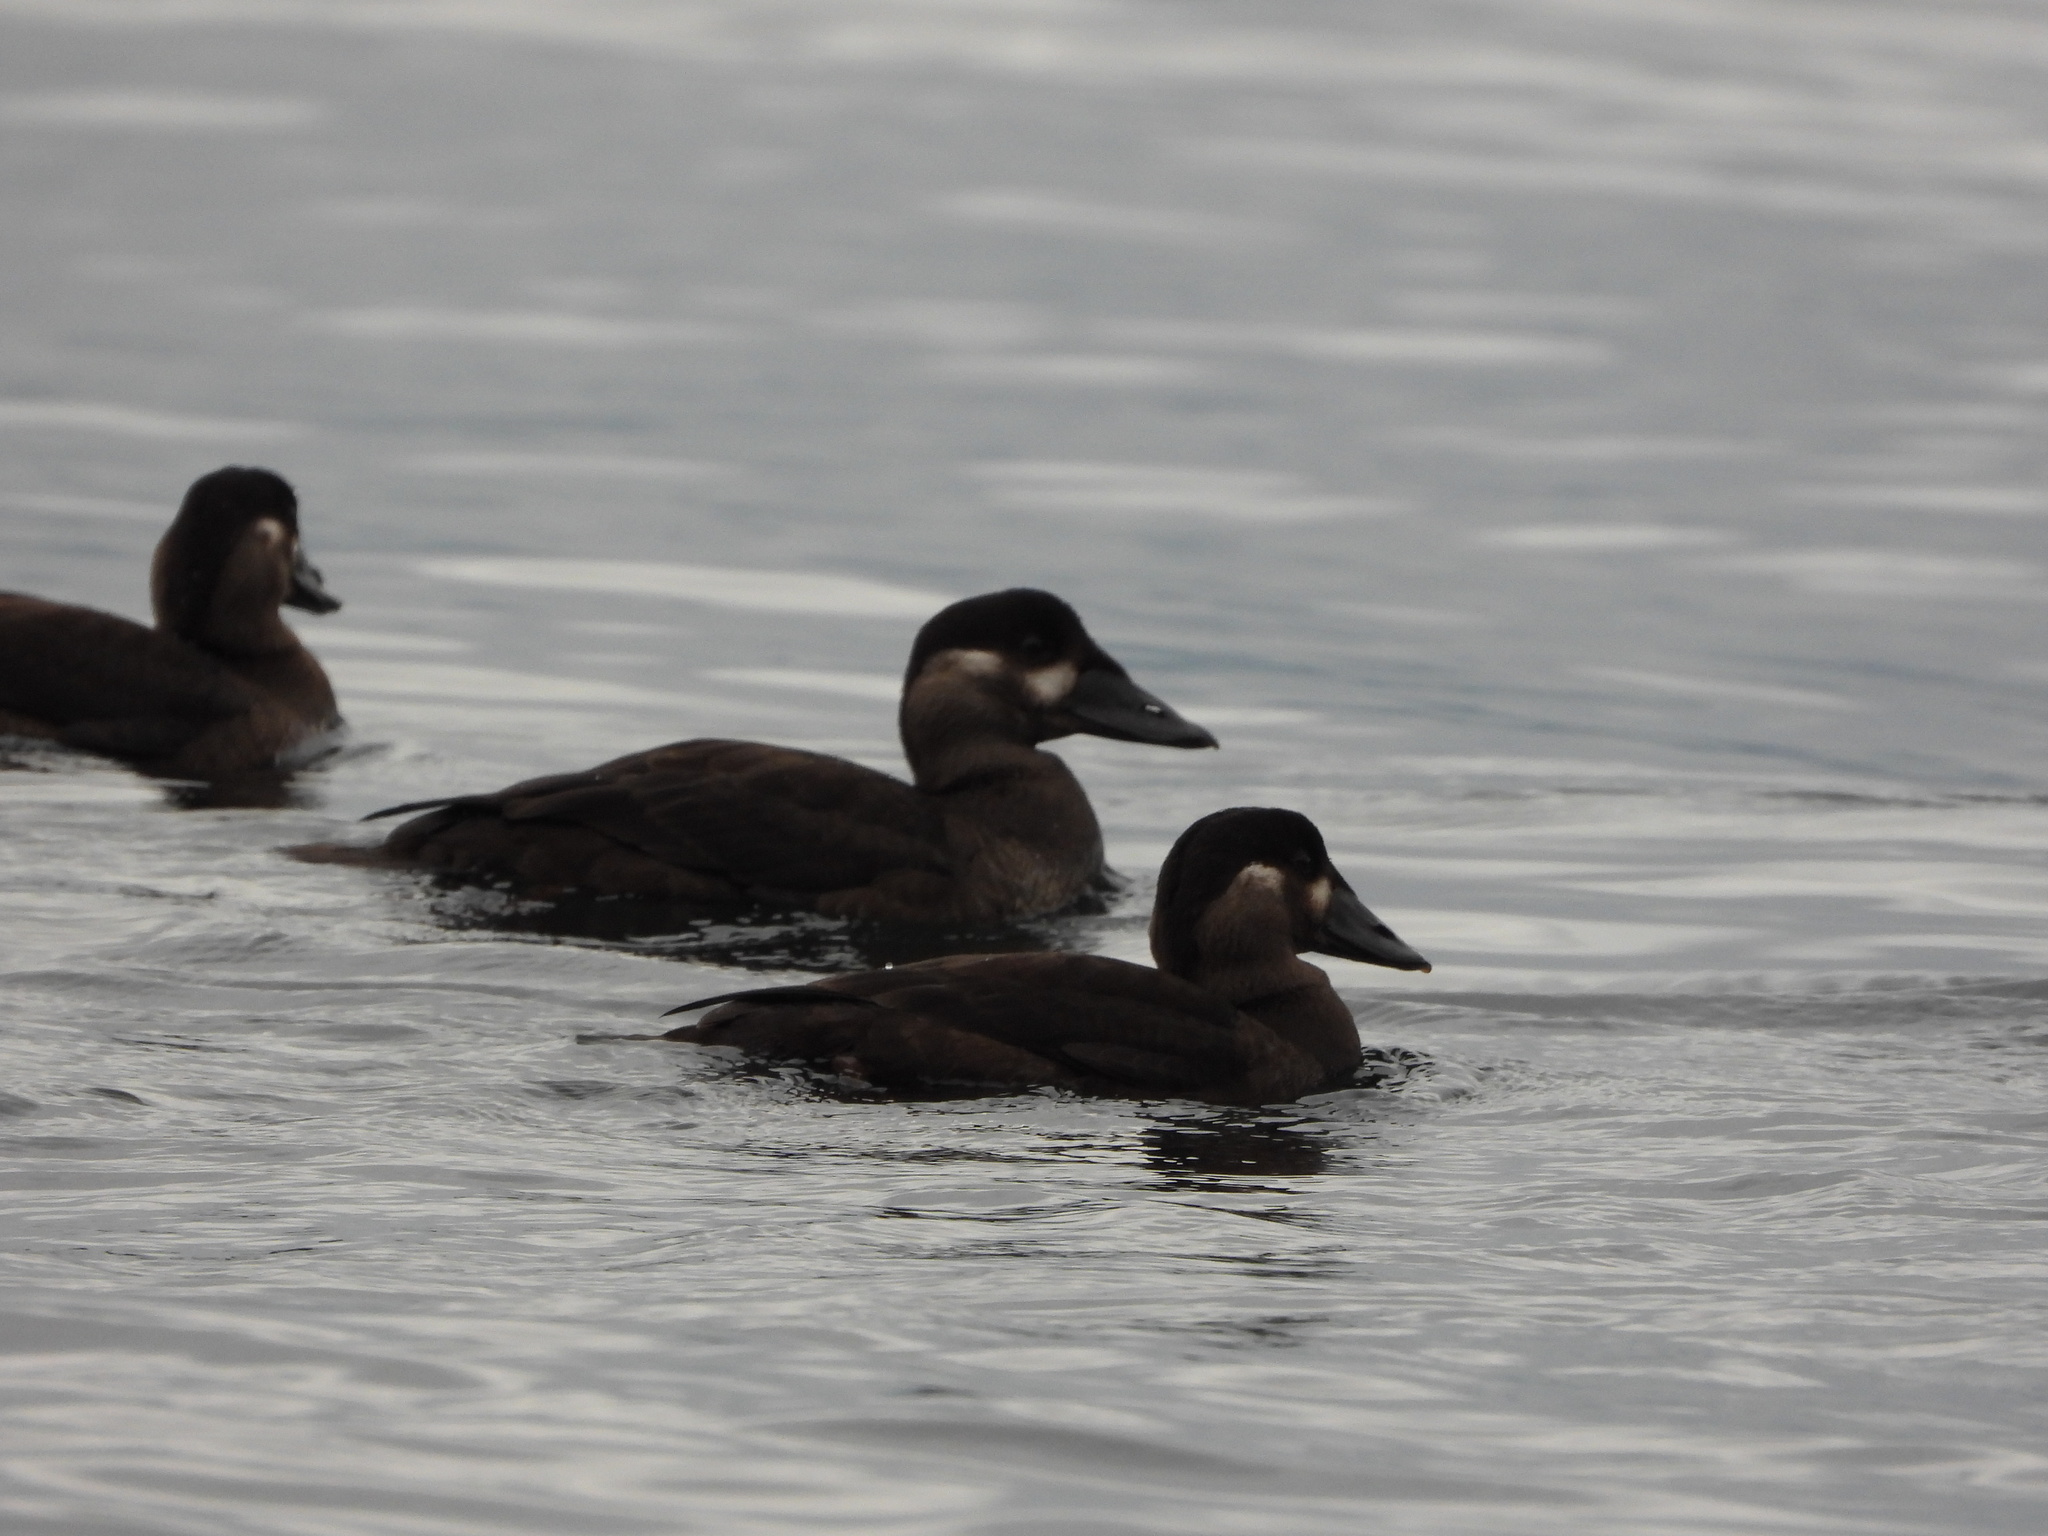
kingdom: Animalia
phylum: Chordata
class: Aves
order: Anseriformes
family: Anatidae
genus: Melanitta
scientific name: Melanitta perspicillata
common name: Surf scoter
